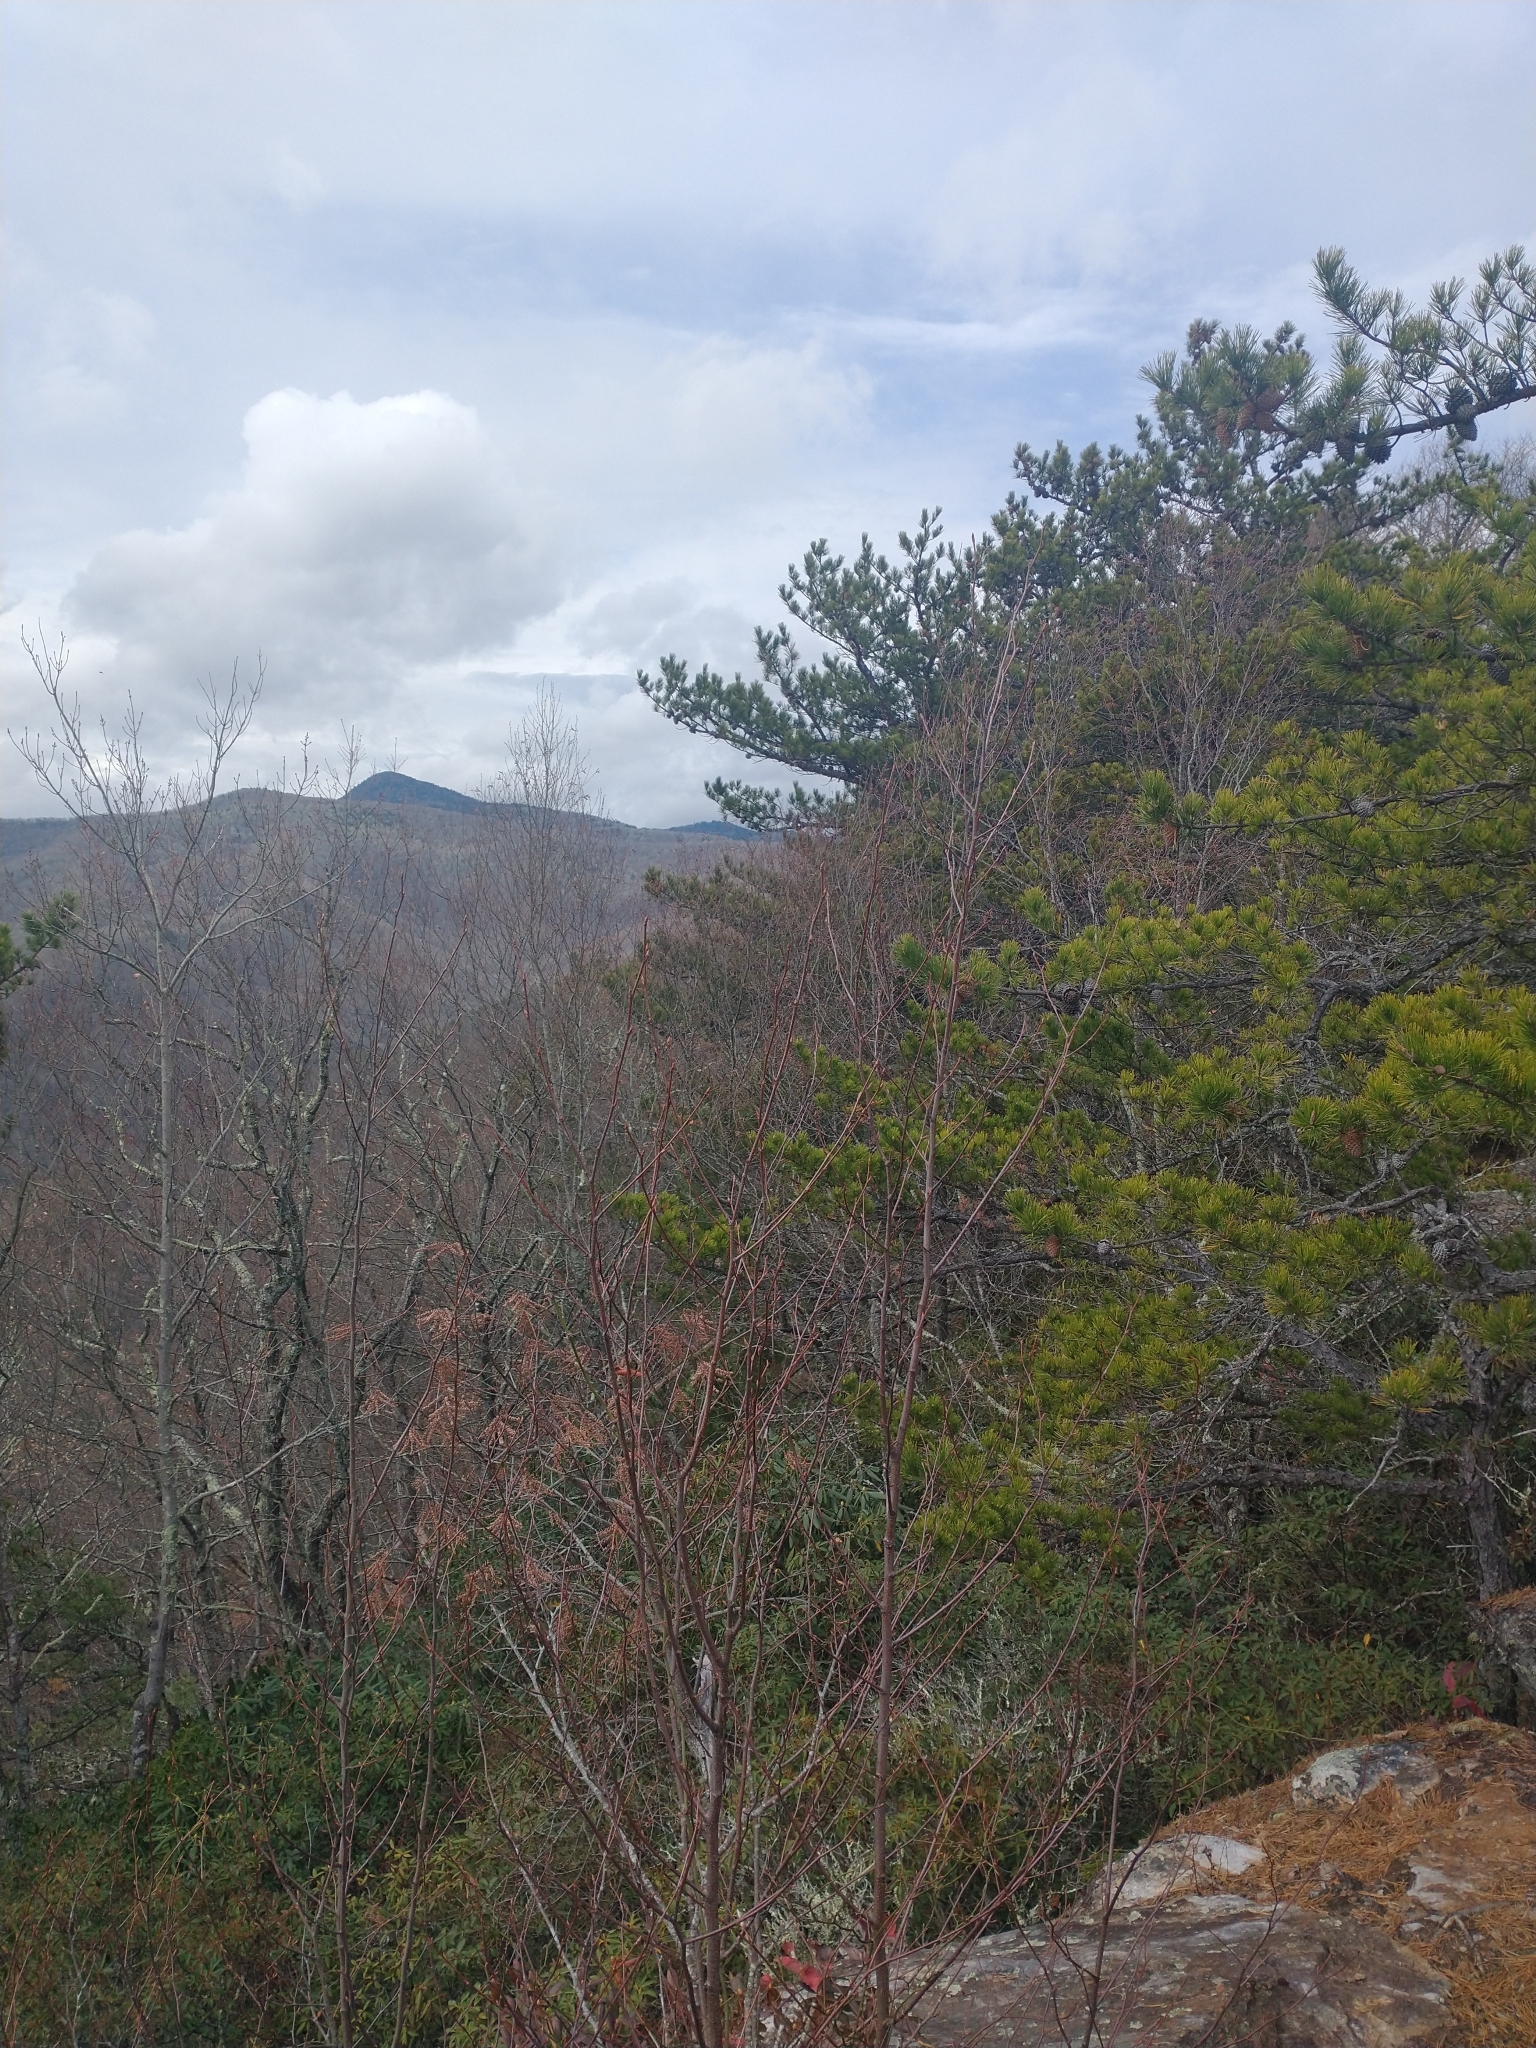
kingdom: Plantae
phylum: Tracheophyta
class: Pinopsida
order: Pinales
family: Pinaceae
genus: Pinus
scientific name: Pinus pungens
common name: Hickory pine
